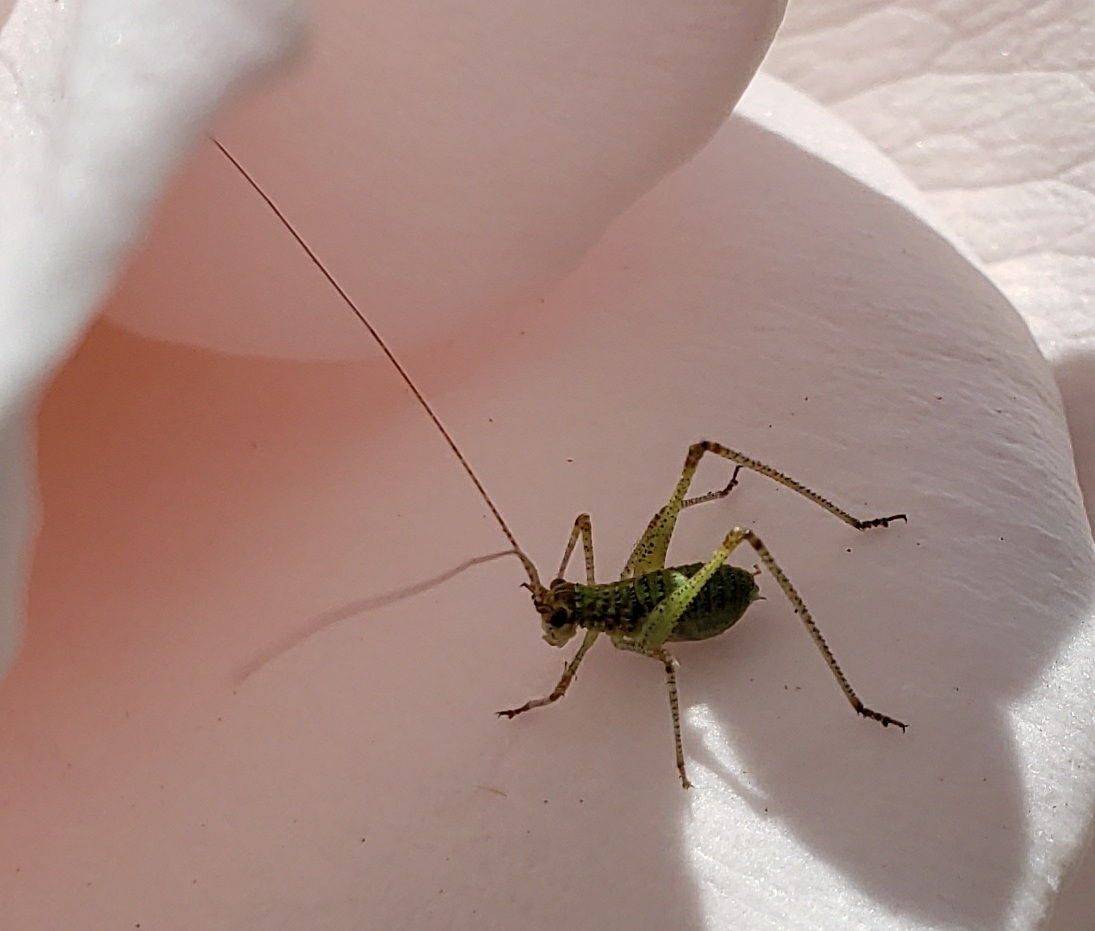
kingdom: Animalia
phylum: Arthropoda
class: Insecta
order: Orthoptera
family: Tettigoniidae
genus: Phaneroptera
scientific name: Phaneroptera nana
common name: Southern sickle bush-cricket
